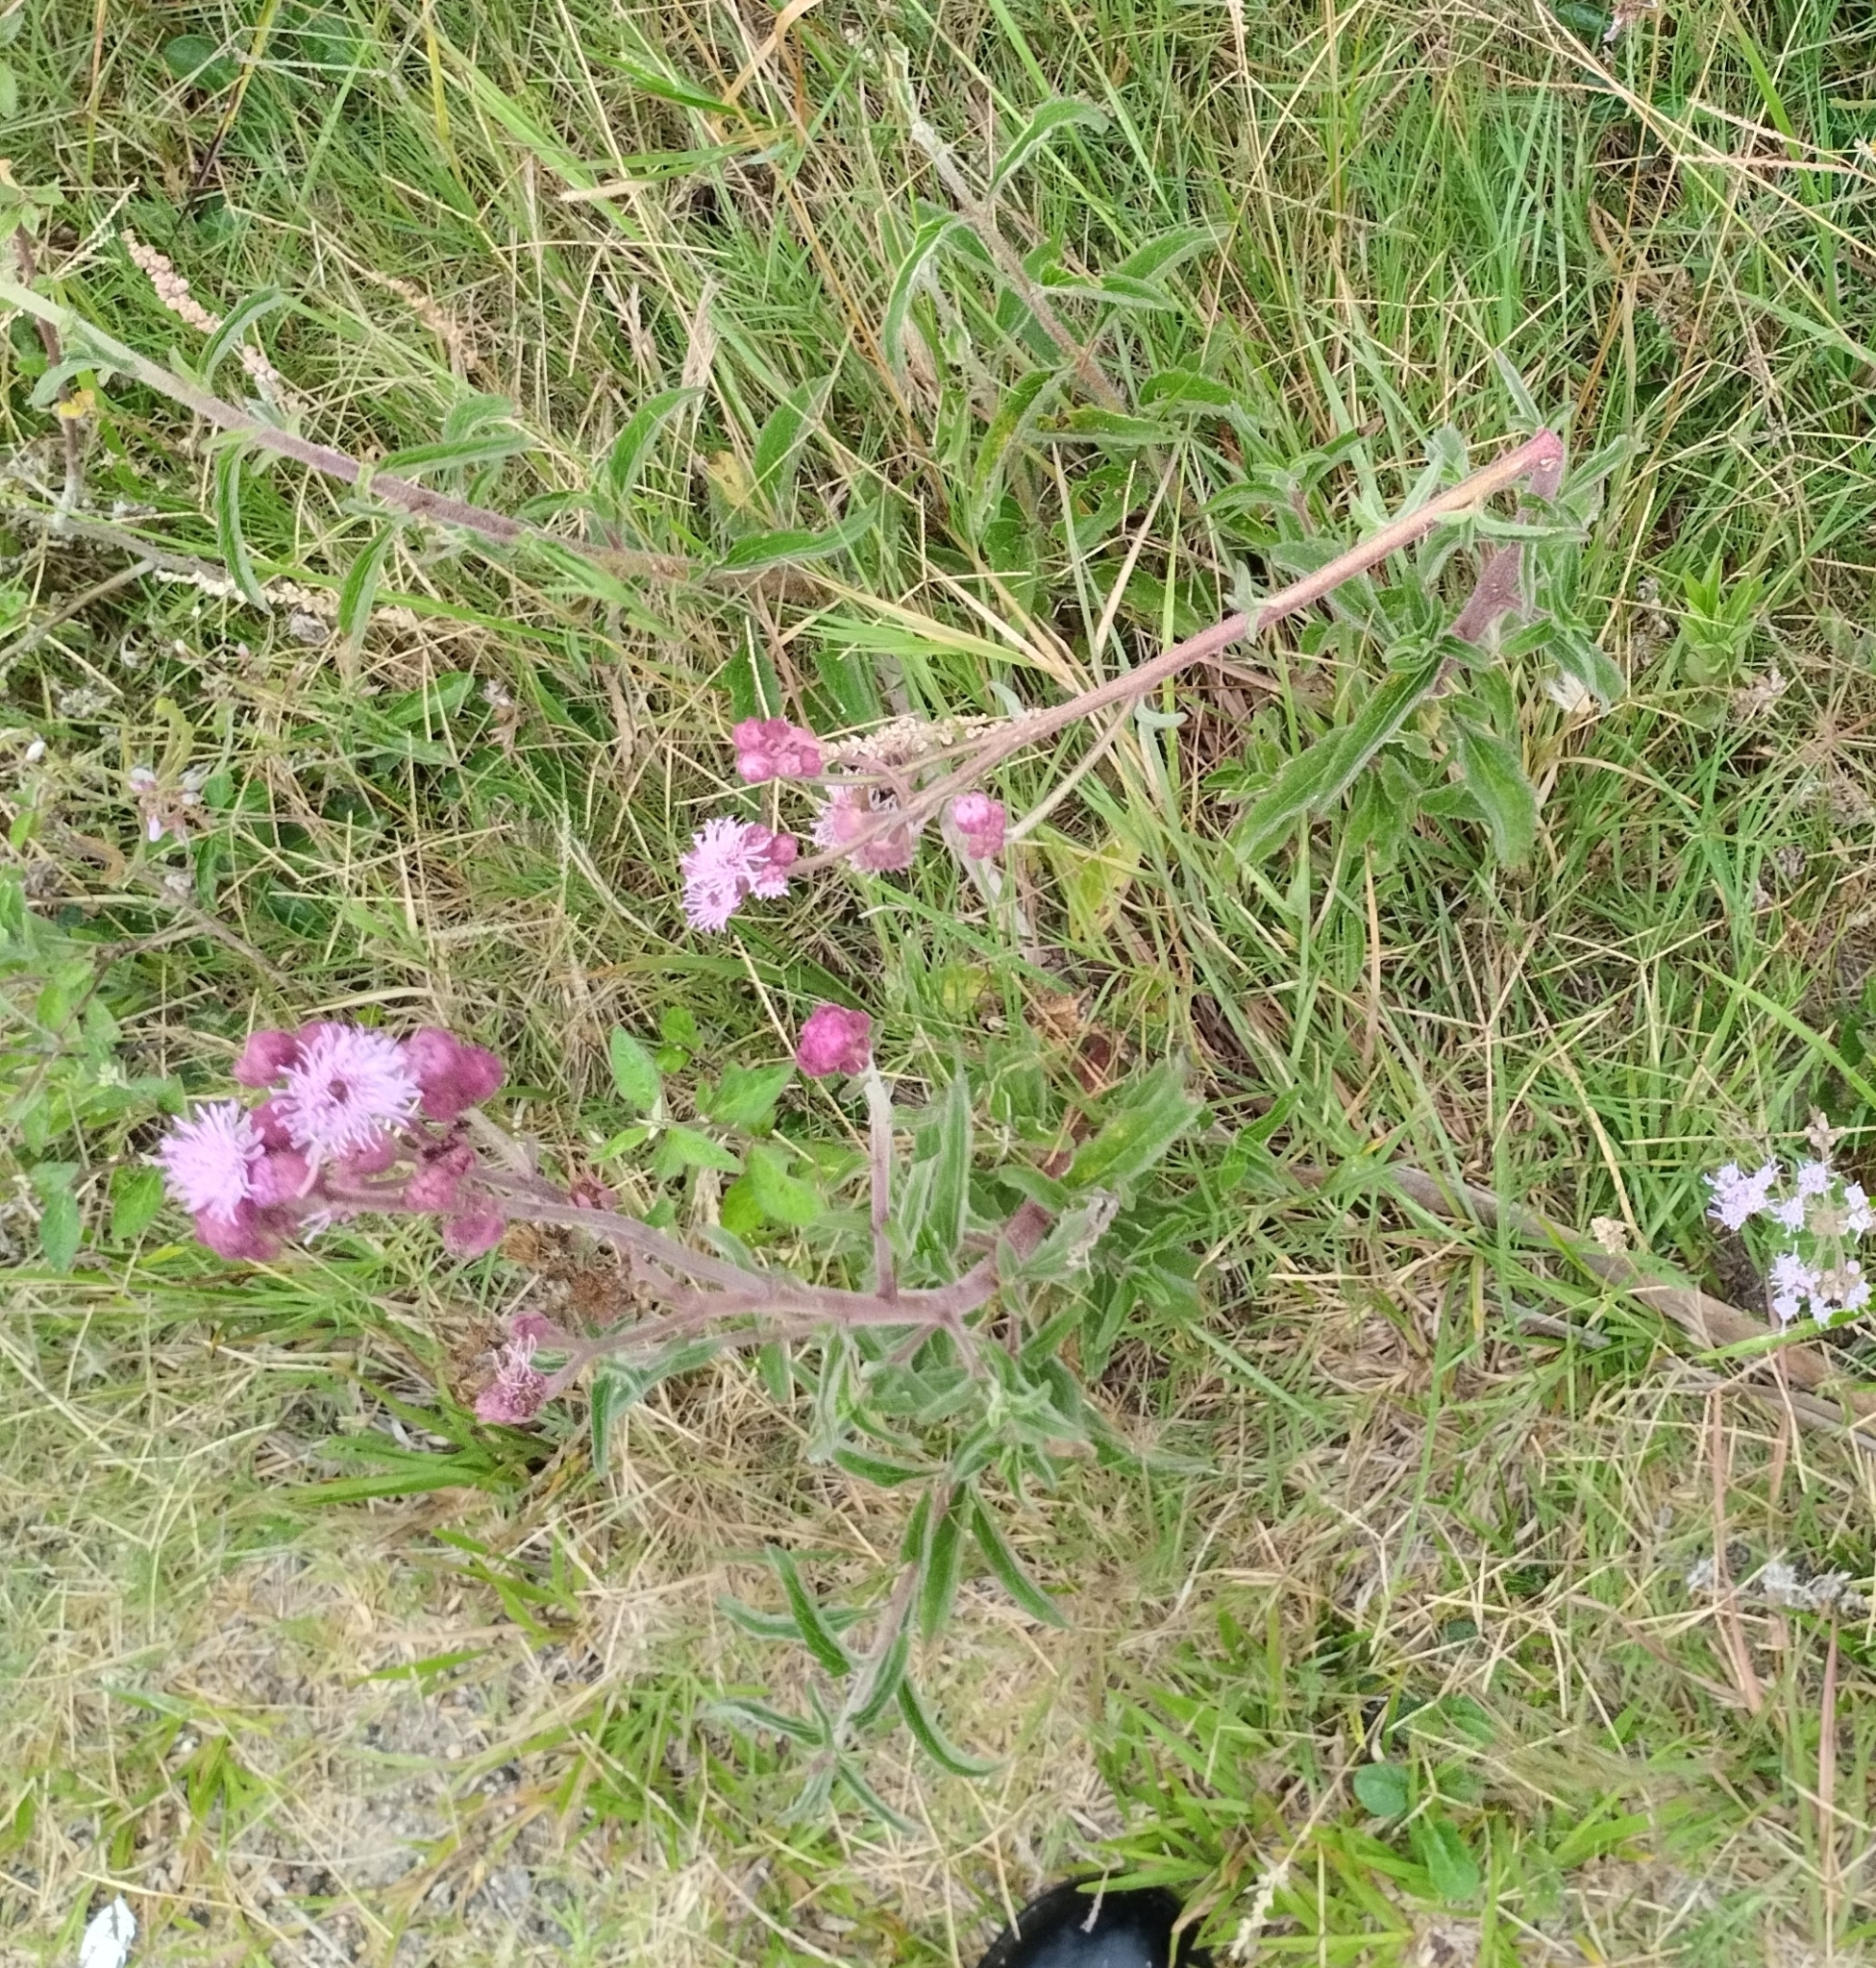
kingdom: Plantae
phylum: Tracheophyta
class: Magnoliopsida
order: Asterales
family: Asteraceae
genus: Campuloclinium
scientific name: Campuloclinium macrocephalum
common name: Pompomweed
